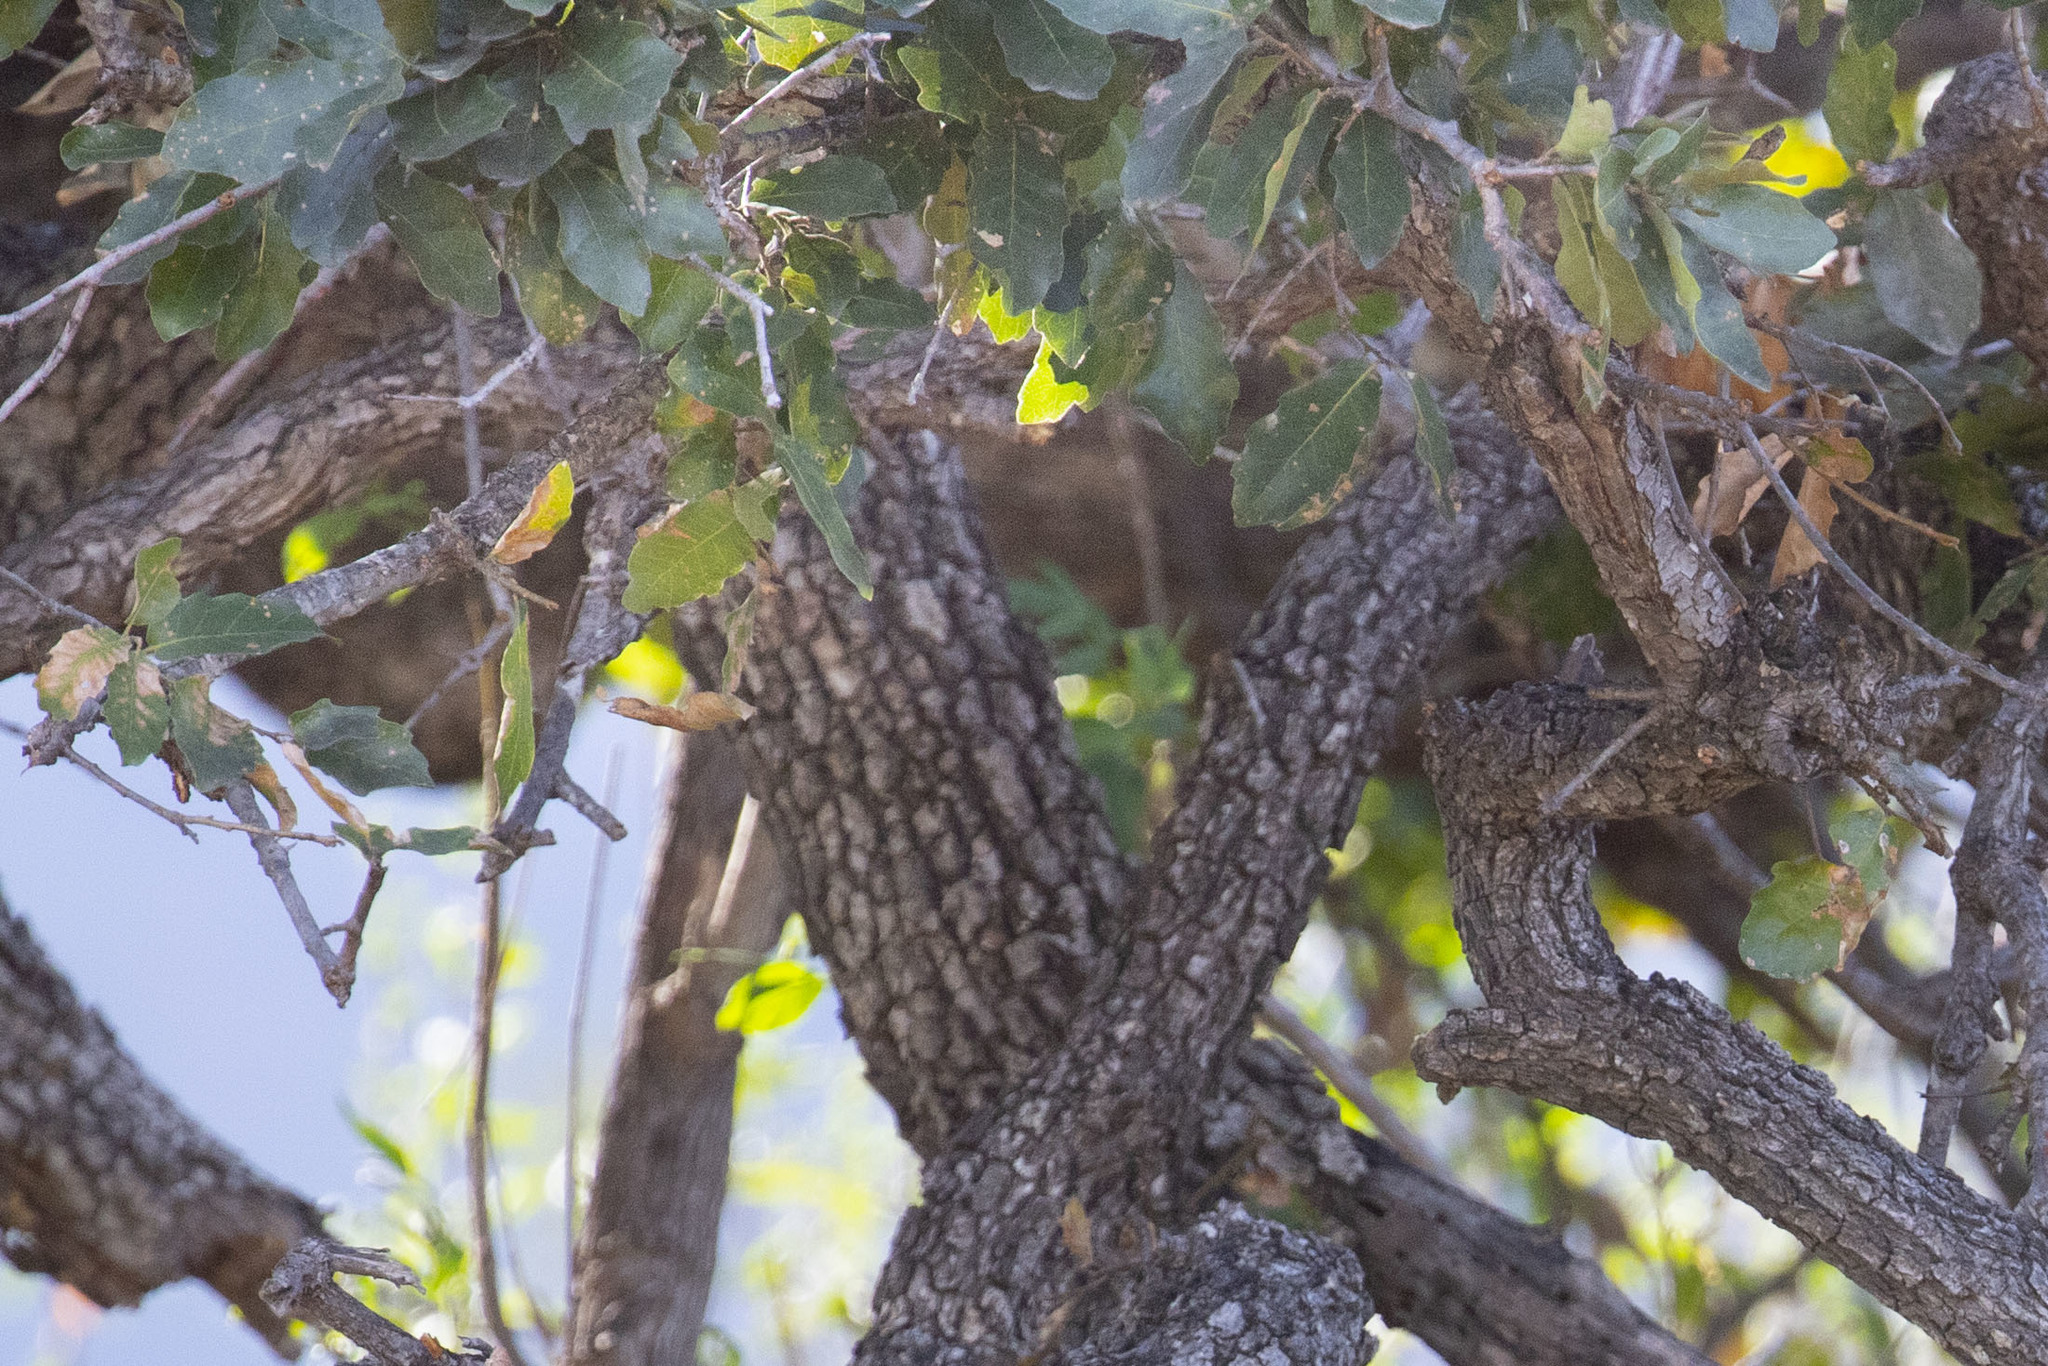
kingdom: Plantae
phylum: Tracheophyta
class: Magnoliopsida
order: Fagales
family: Fagaceae
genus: Quercus
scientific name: Quercus tuberculata
